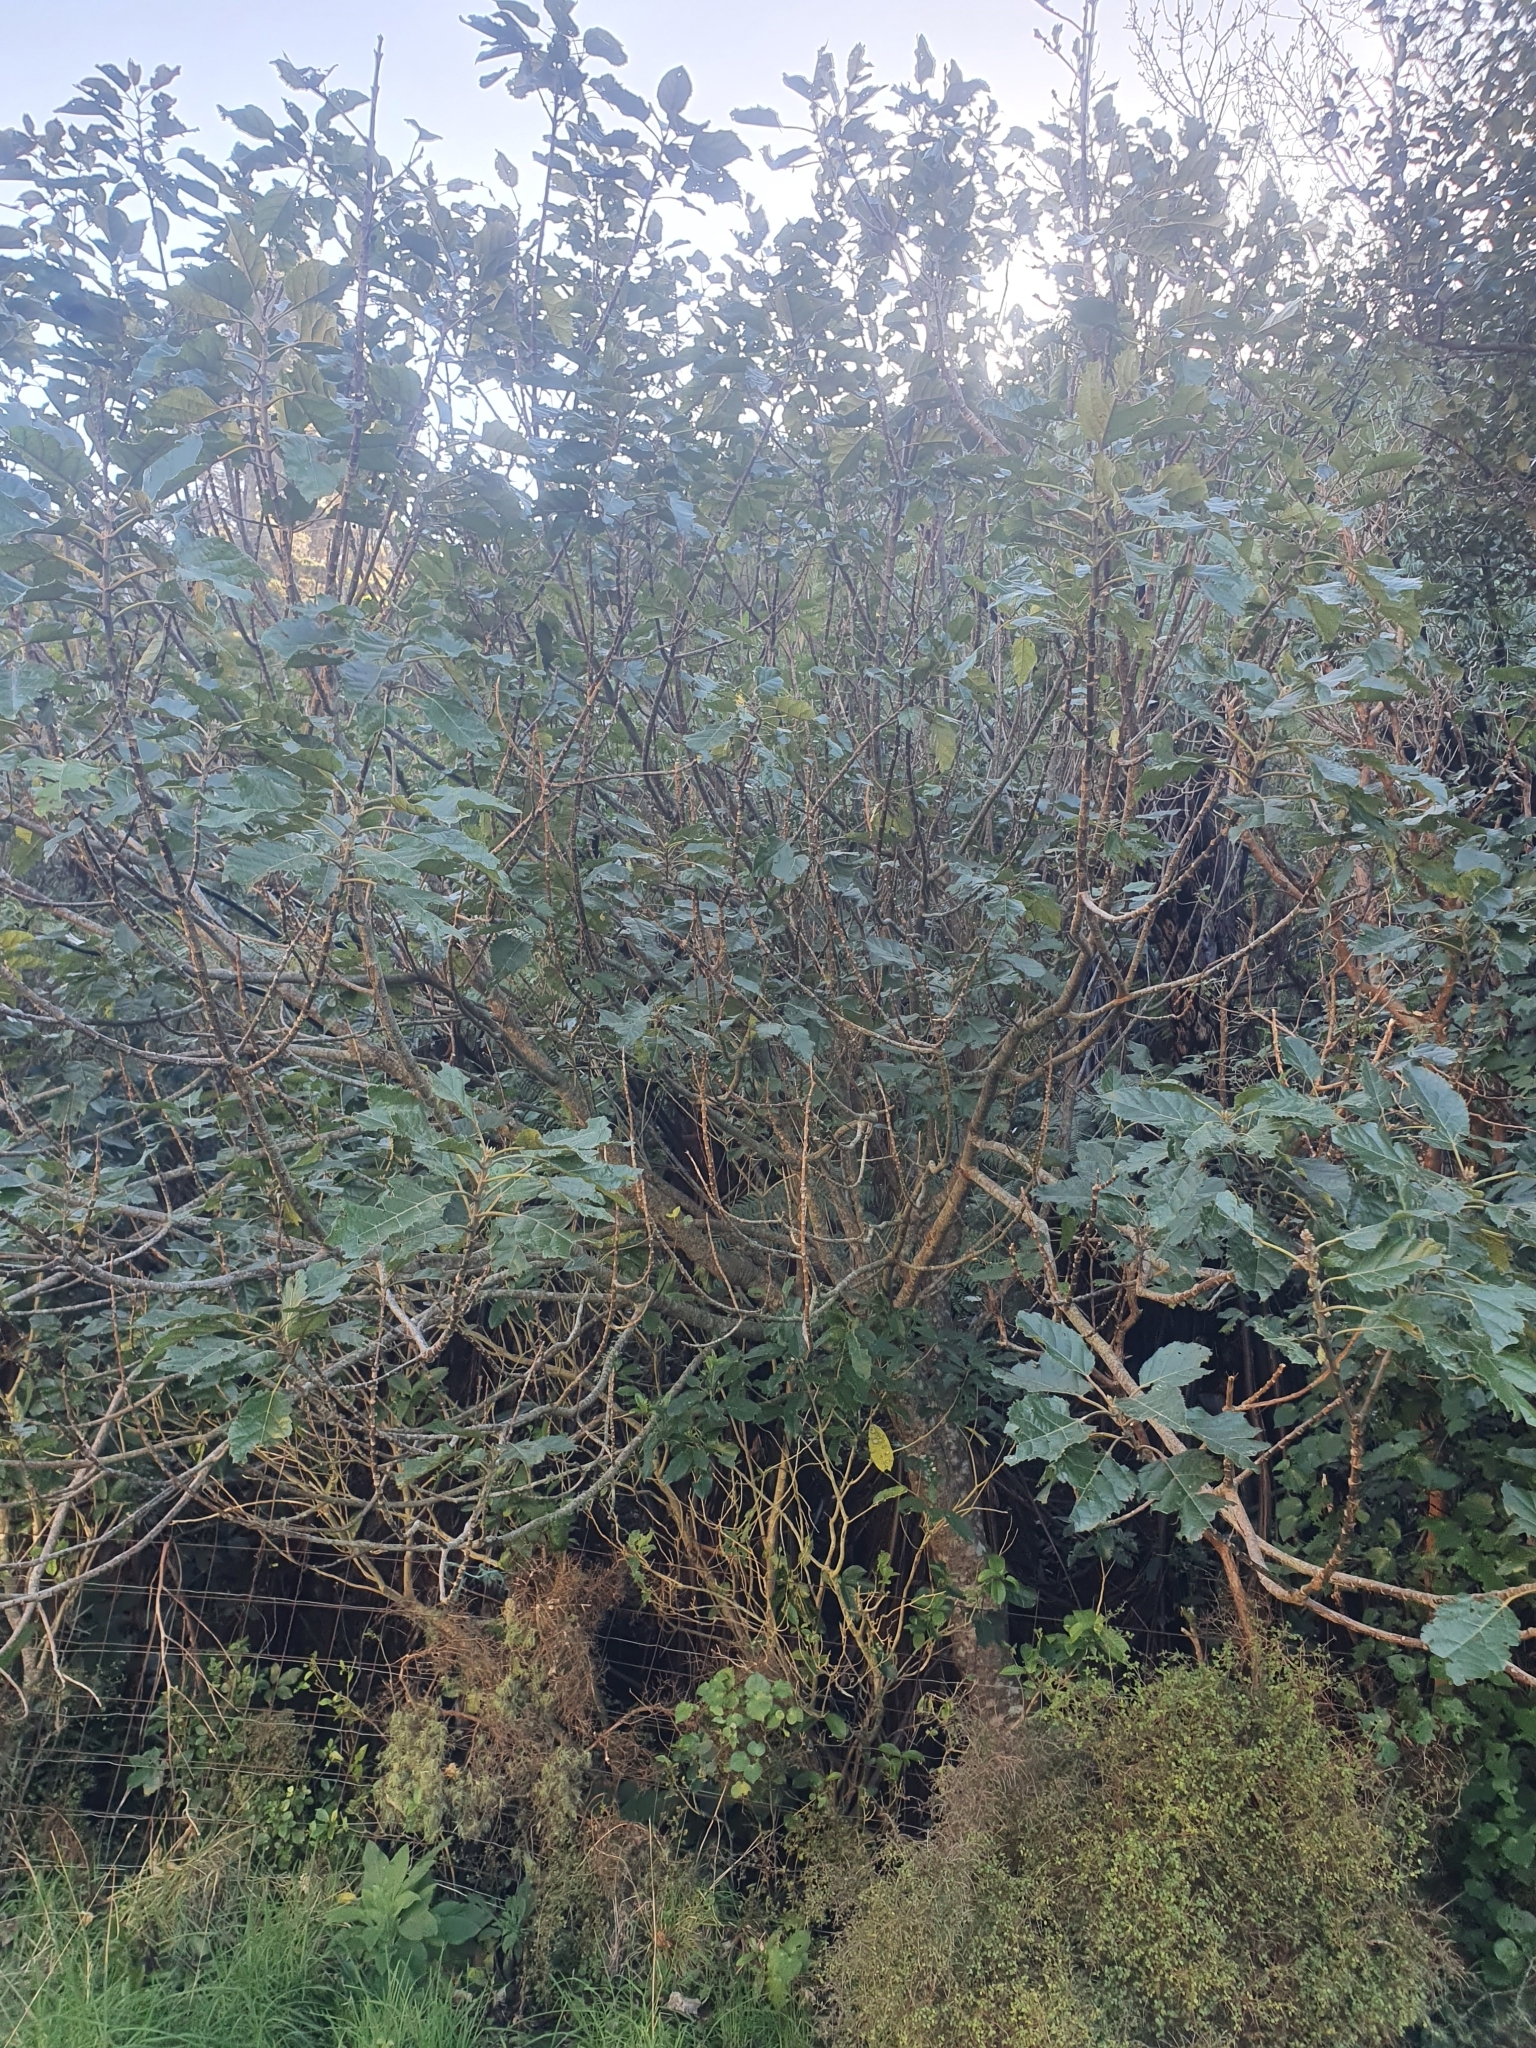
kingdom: Plantae
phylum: Tracheophyta
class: Magnoliopsida
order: Oxalidales
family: Elaeocarpaceae
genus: Aristotelia
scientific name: Aristotelia serrata
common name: New zealand wineberry
